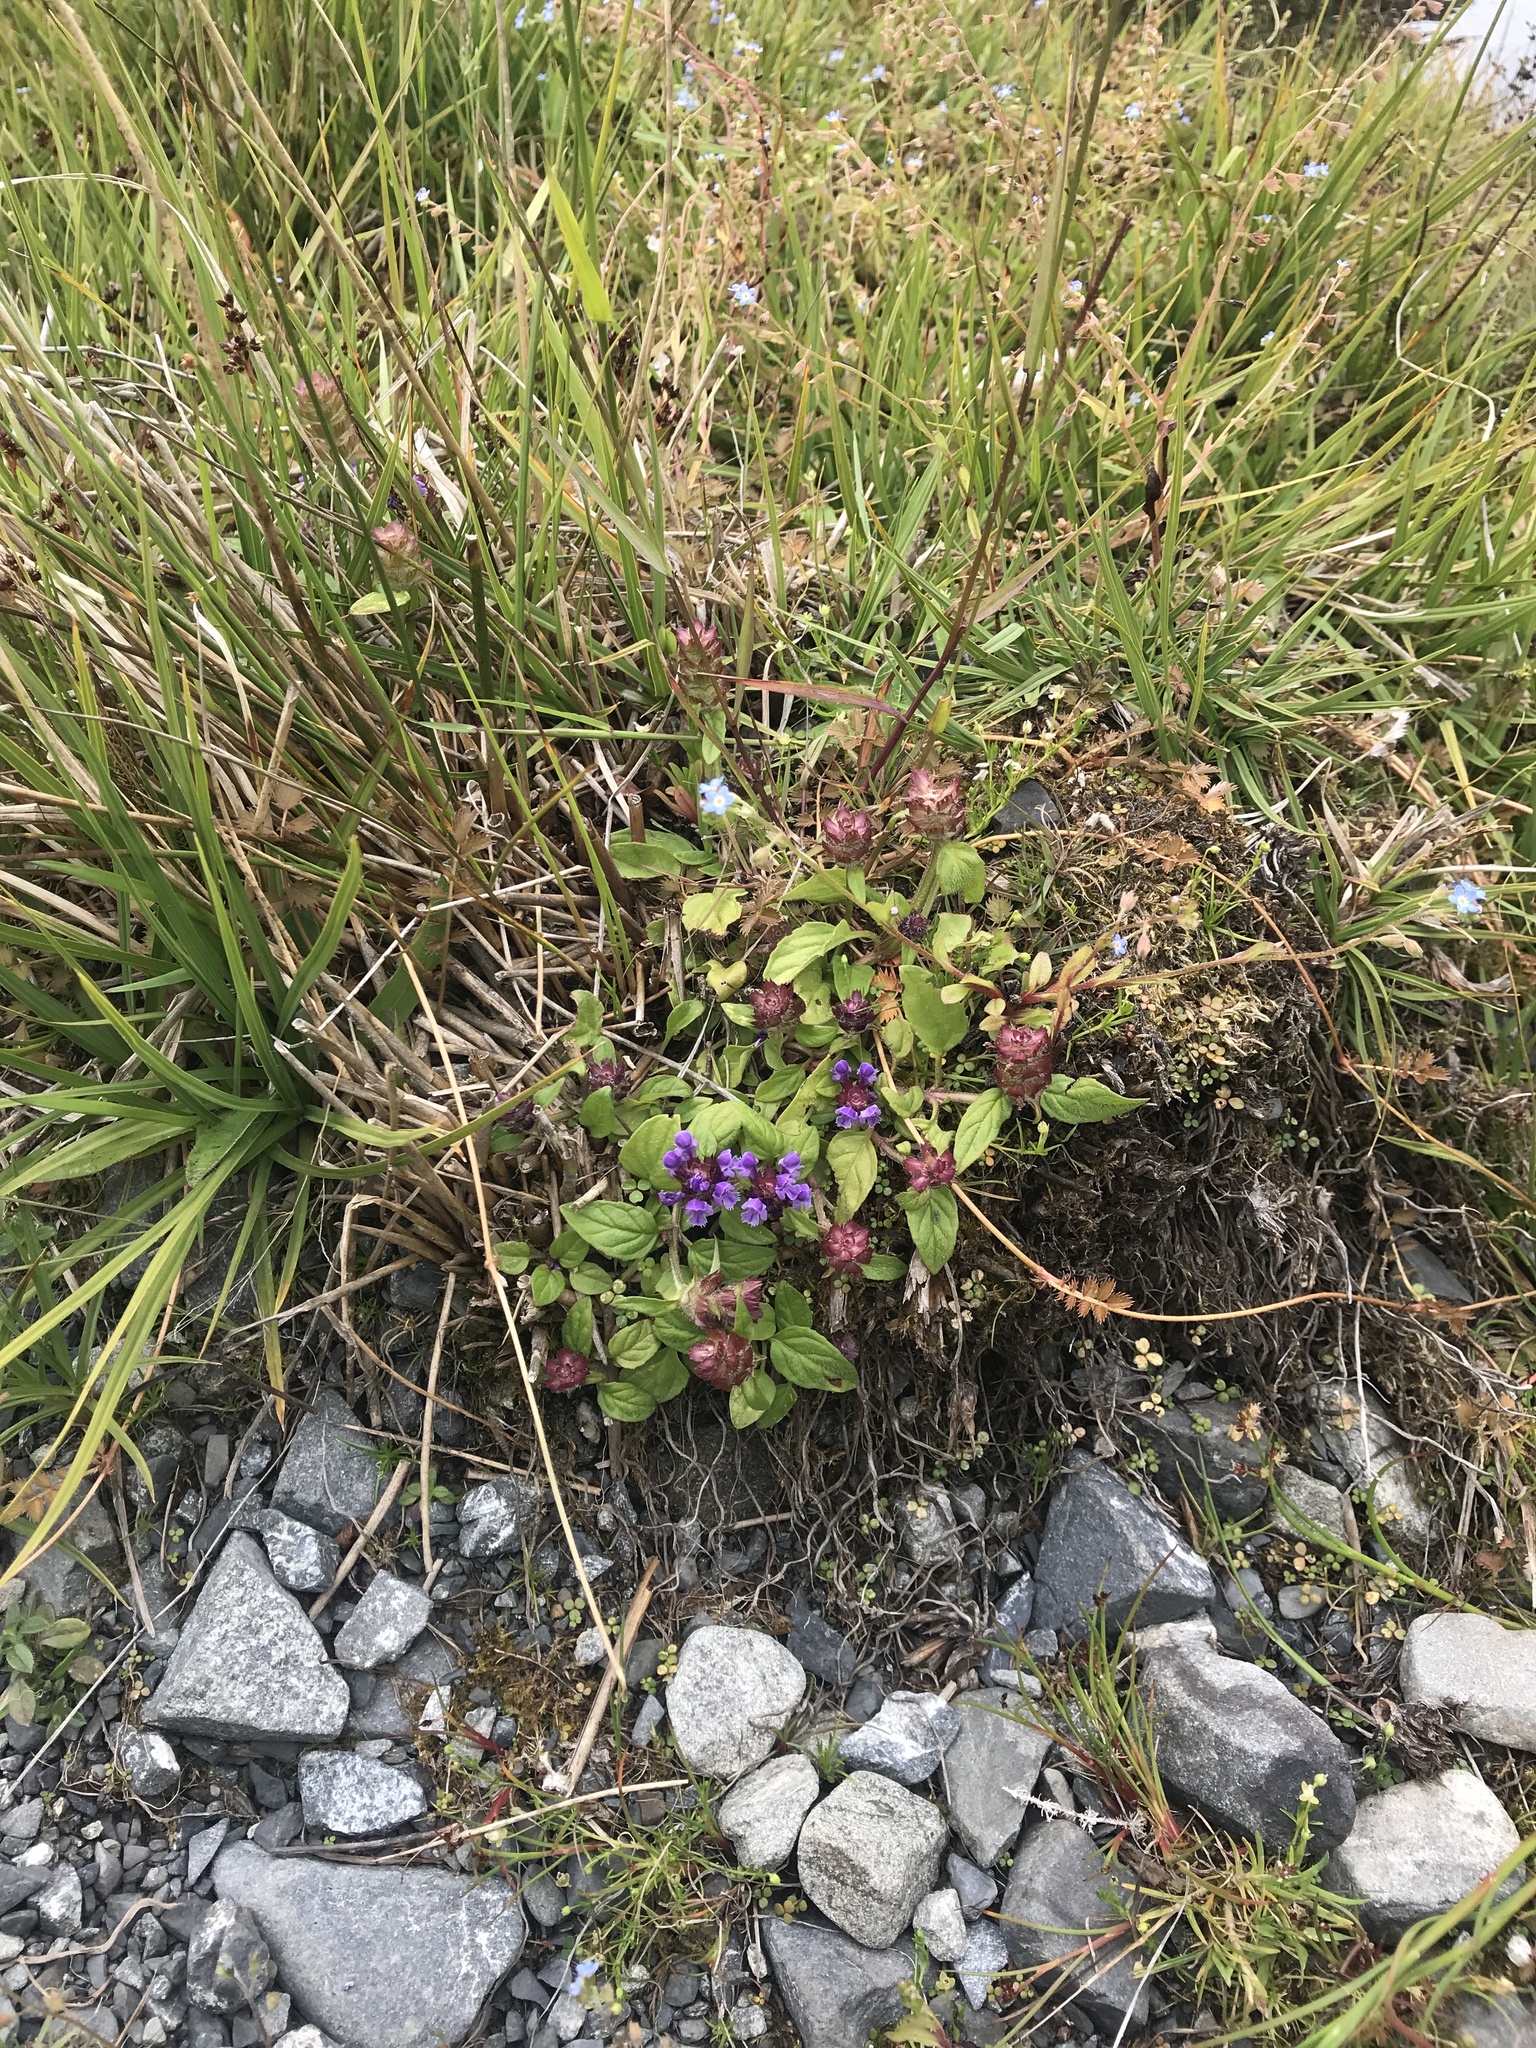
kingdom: Plantae
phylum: Tracheophyta
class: Magnoliopsida
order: Lamiales
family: Lamiaceae
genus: Prunella
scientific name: Prunella vulgaris
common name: Heal-all
